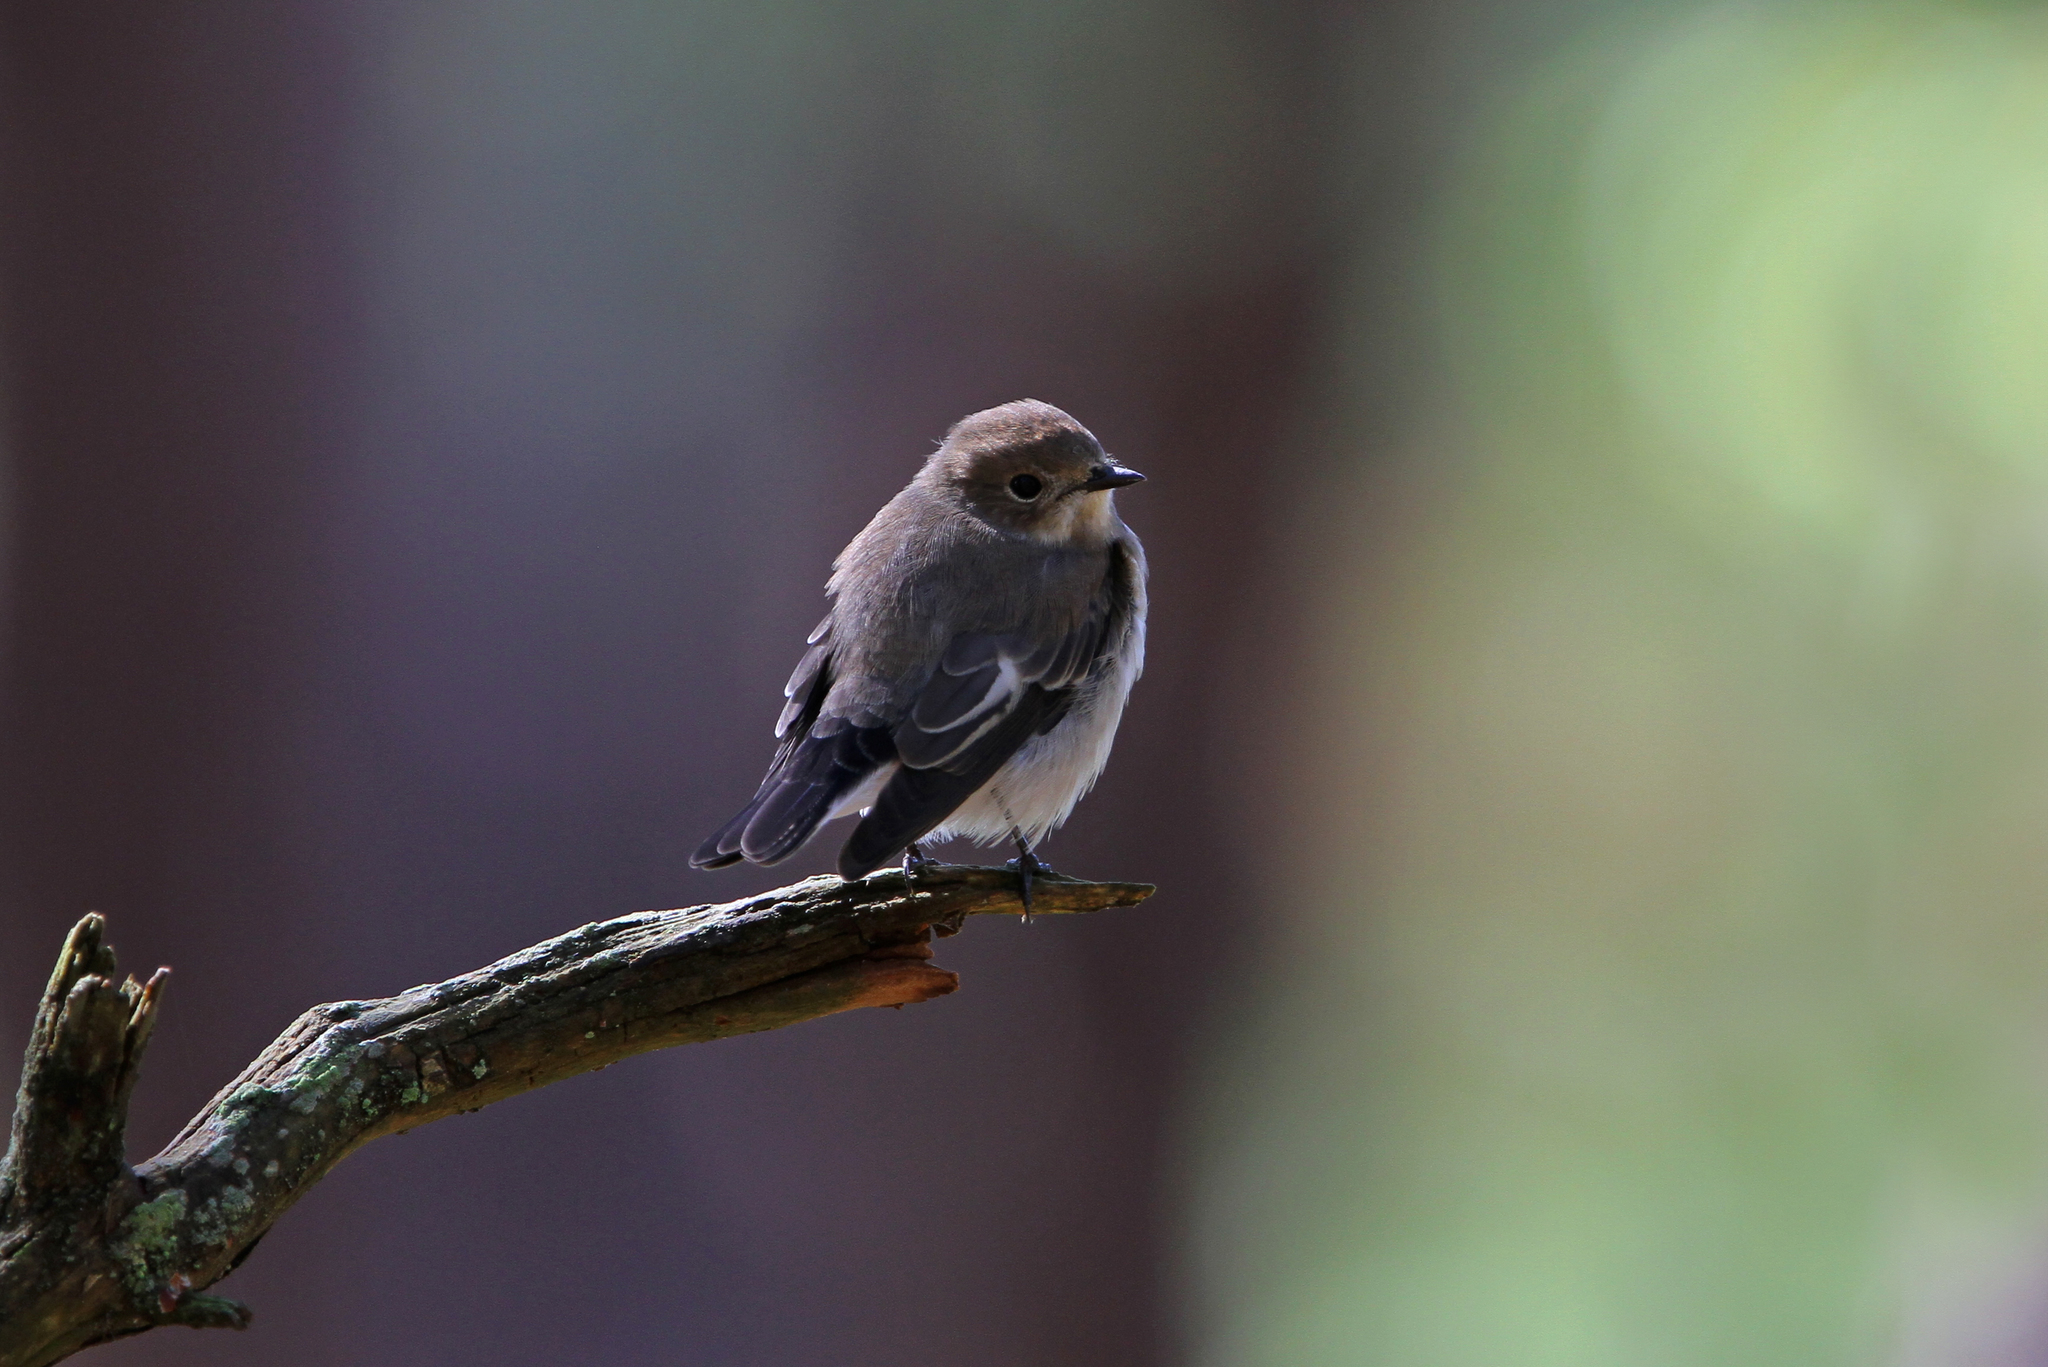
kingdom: Animalia
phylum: Chordata
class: Aves
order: Passeriformes
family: Muscicapidae
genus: Ficedula
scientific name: Ficedula hypoleuca
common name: European pied flycatcher
